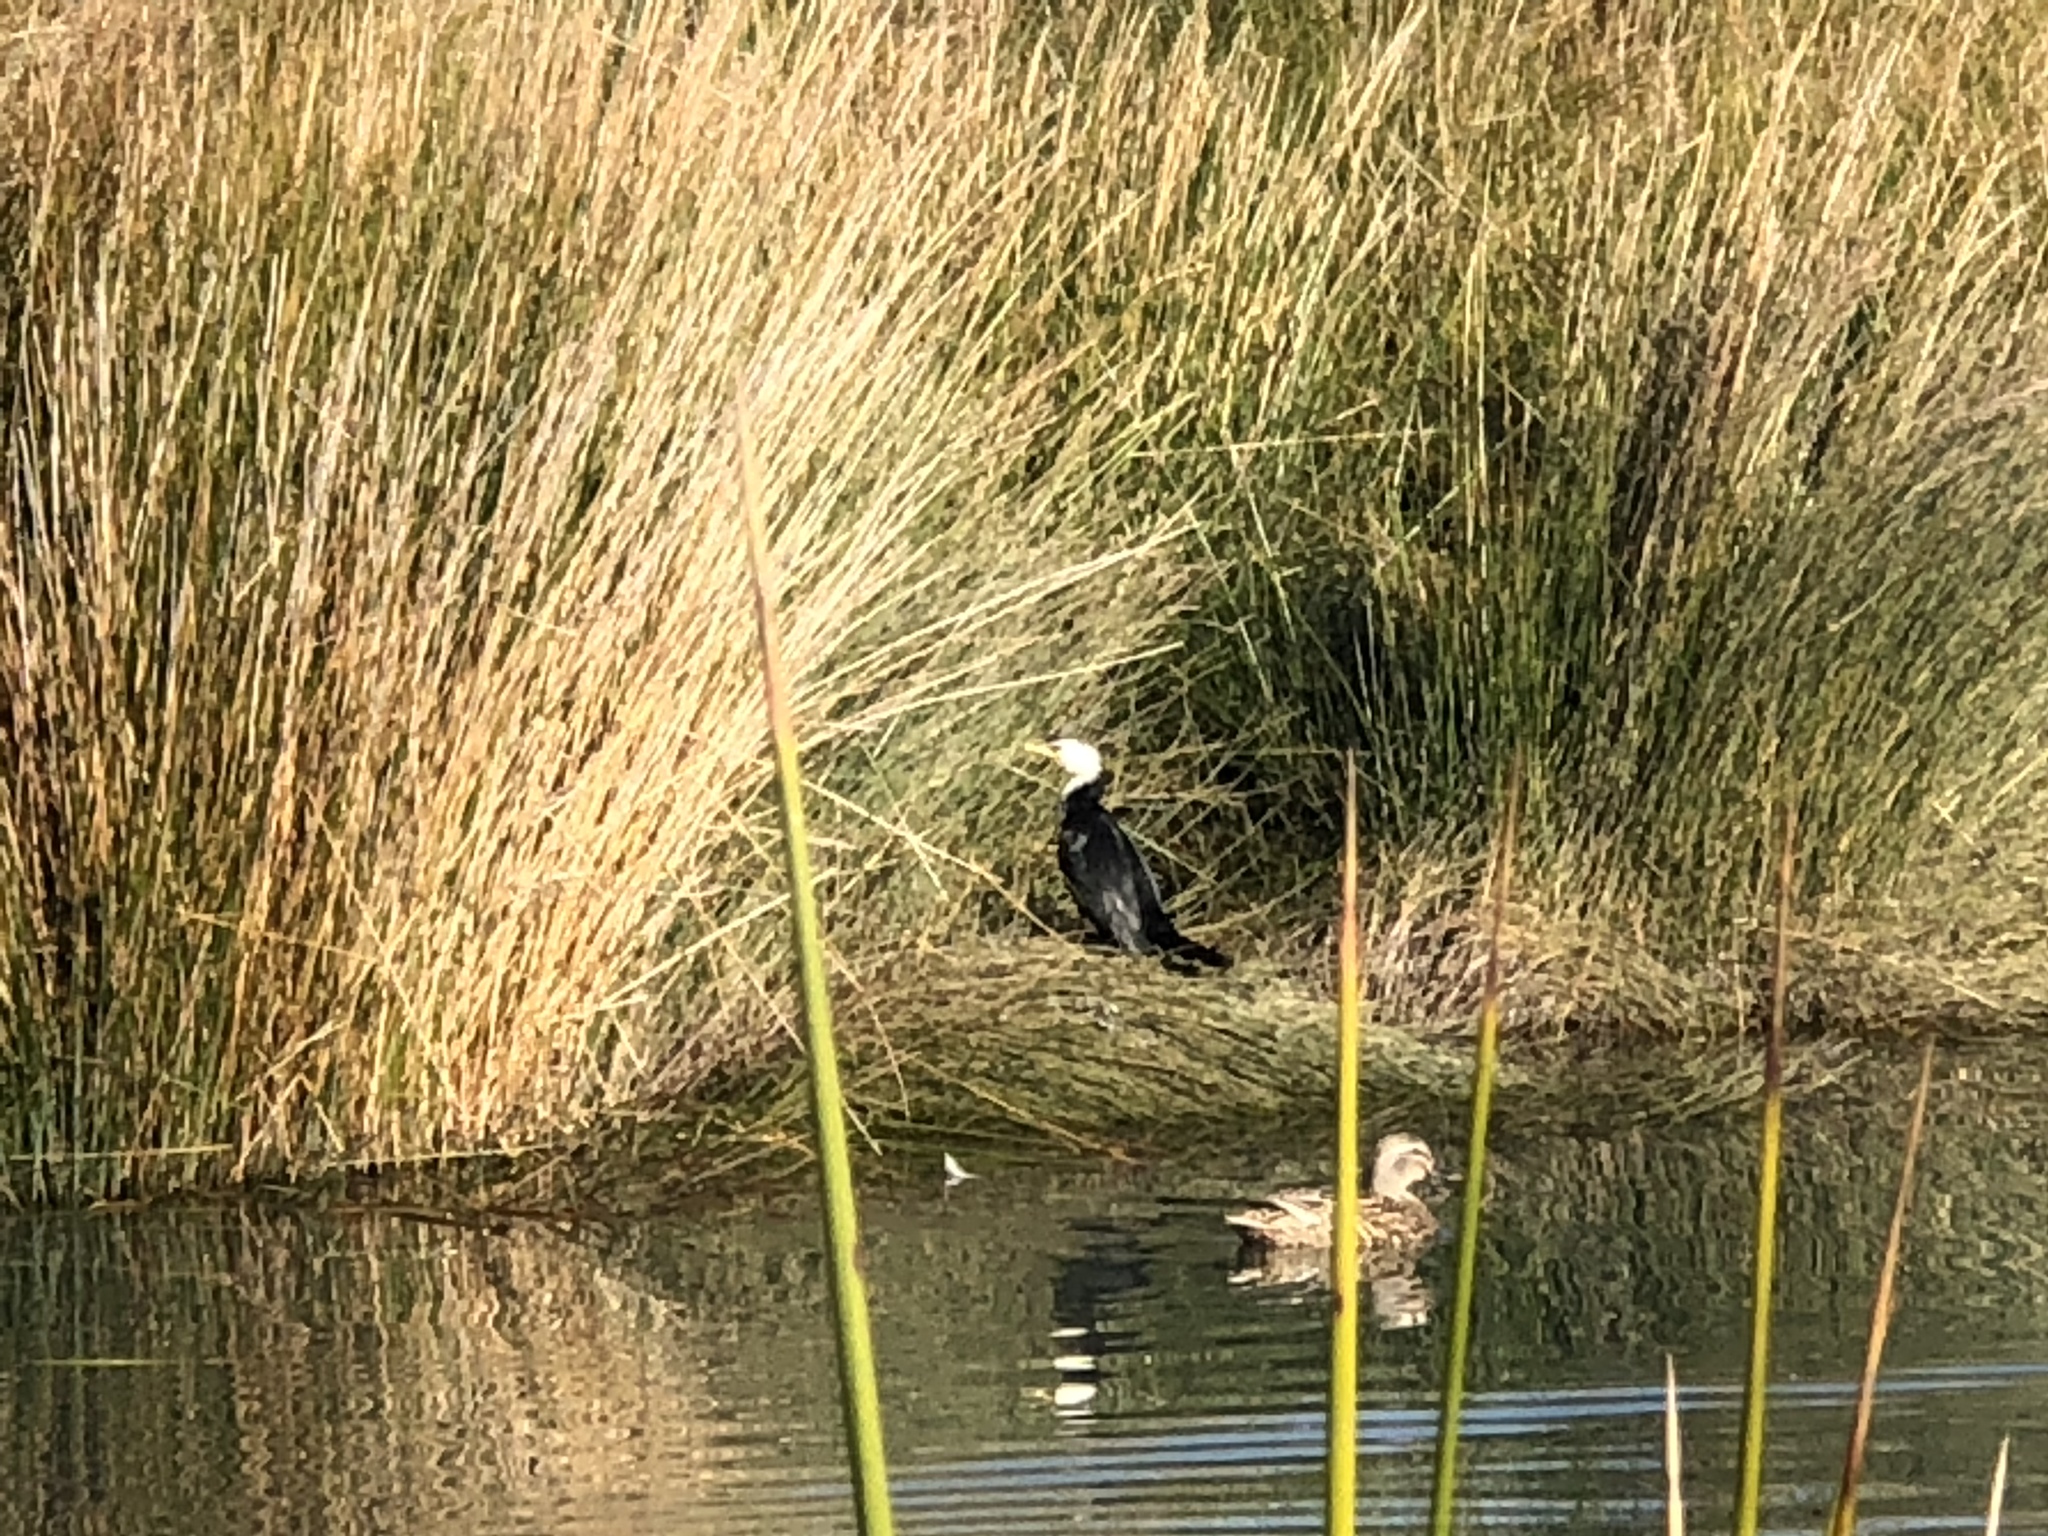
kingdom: Animalia
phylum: Chordata
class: Aves
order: Suliformes
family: Phalacrocoracidae
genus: Microcarbo
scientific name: Microcarbo melanoleucos
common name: Little pied cormorant
